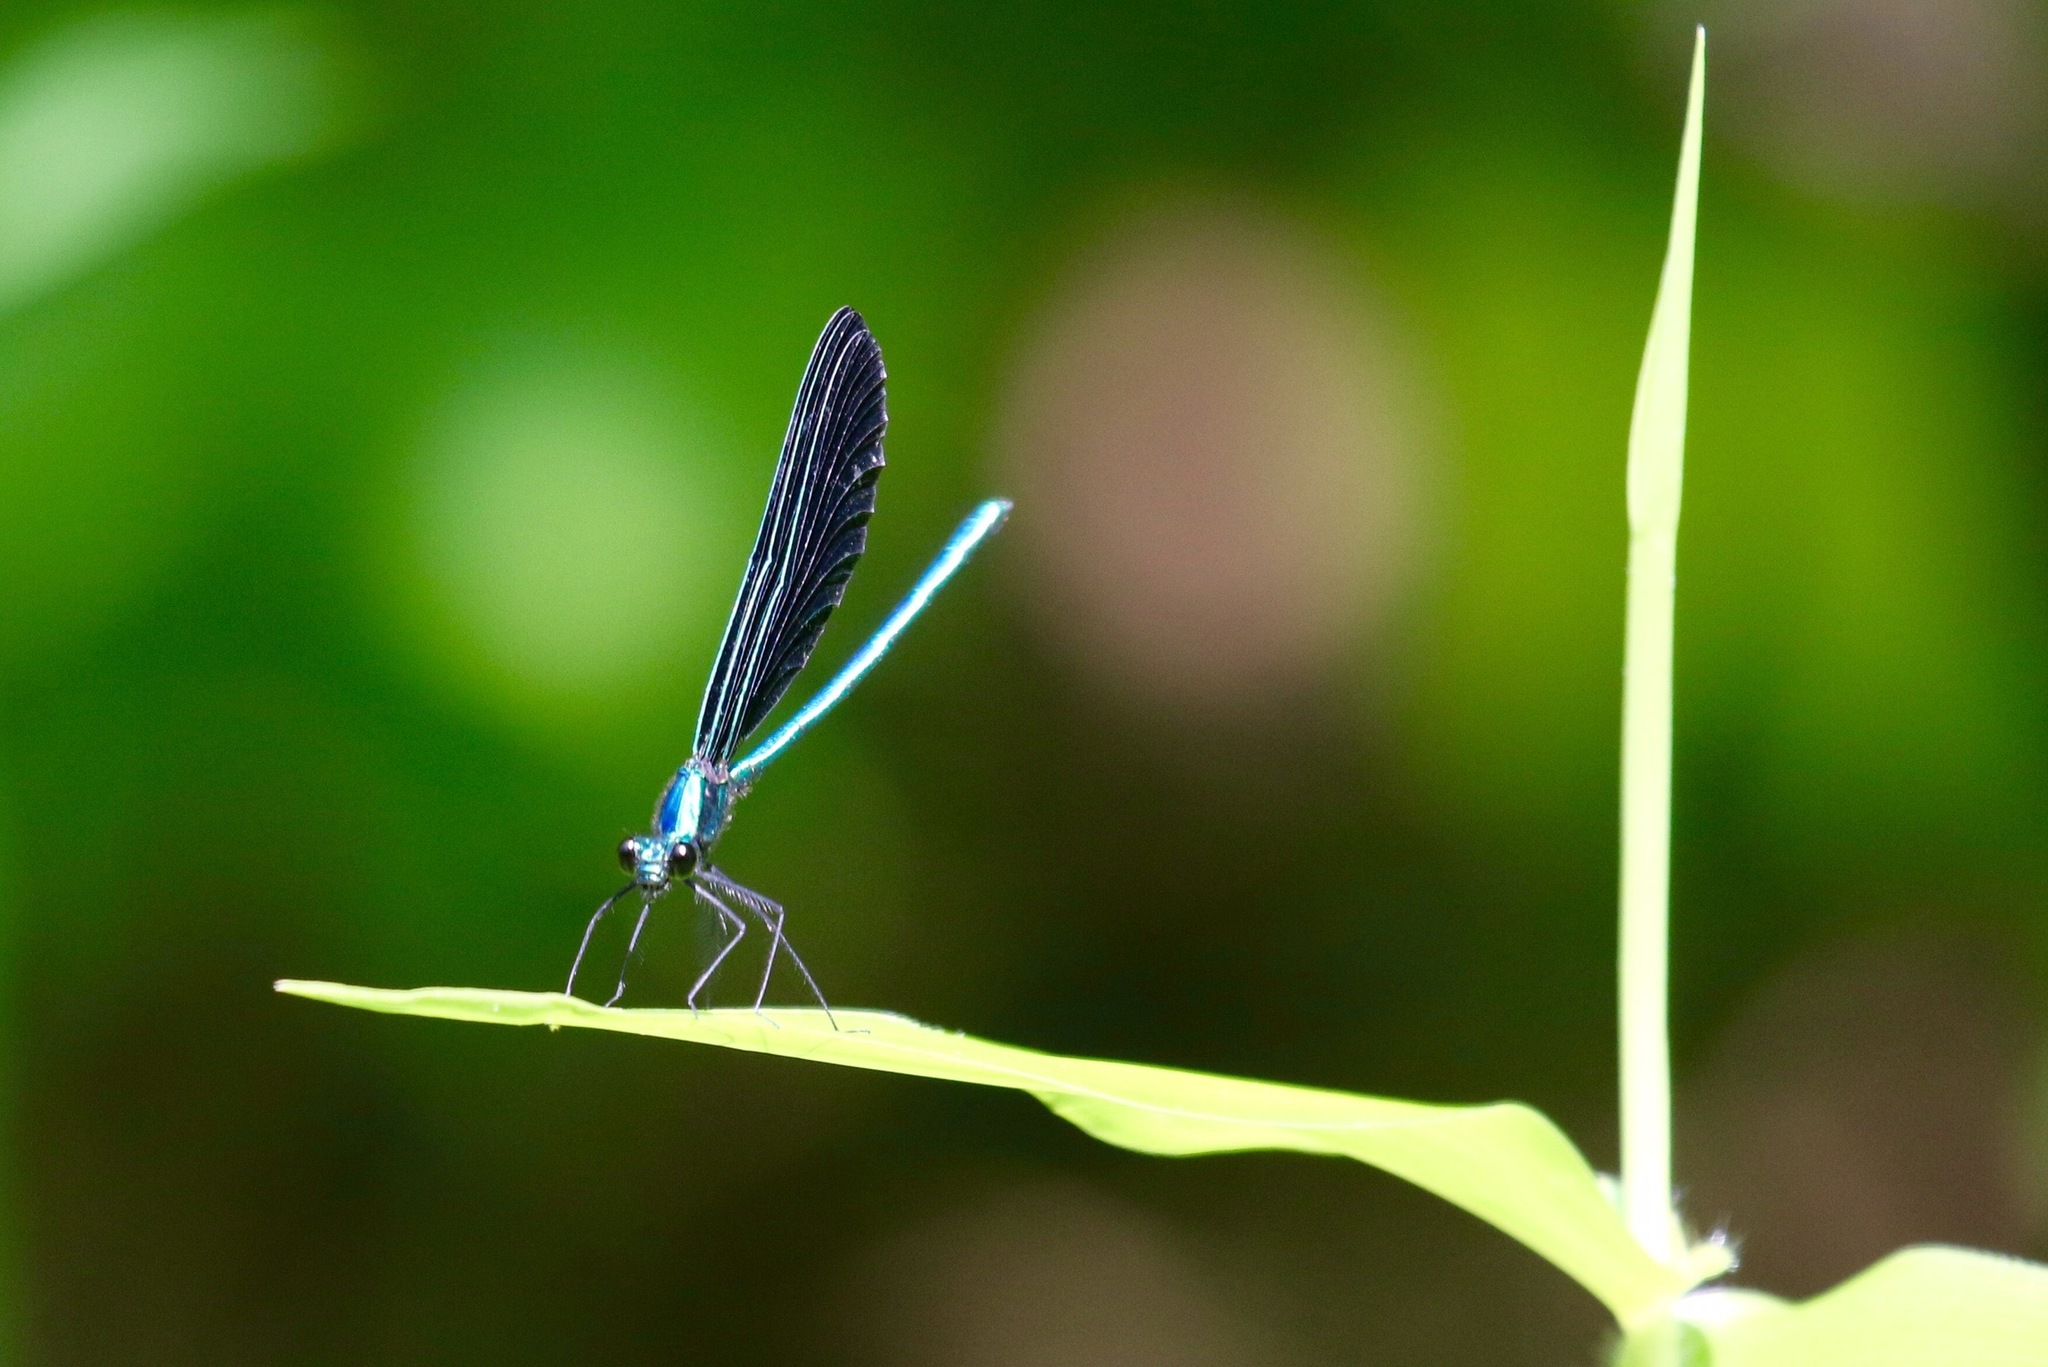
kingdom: Animalia
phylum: Arthropoda
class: Insecta
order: Odonata
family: Calopterygidae
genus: Calopteryx
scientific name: Calopteryx maculata
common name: Ebony jewelwing
